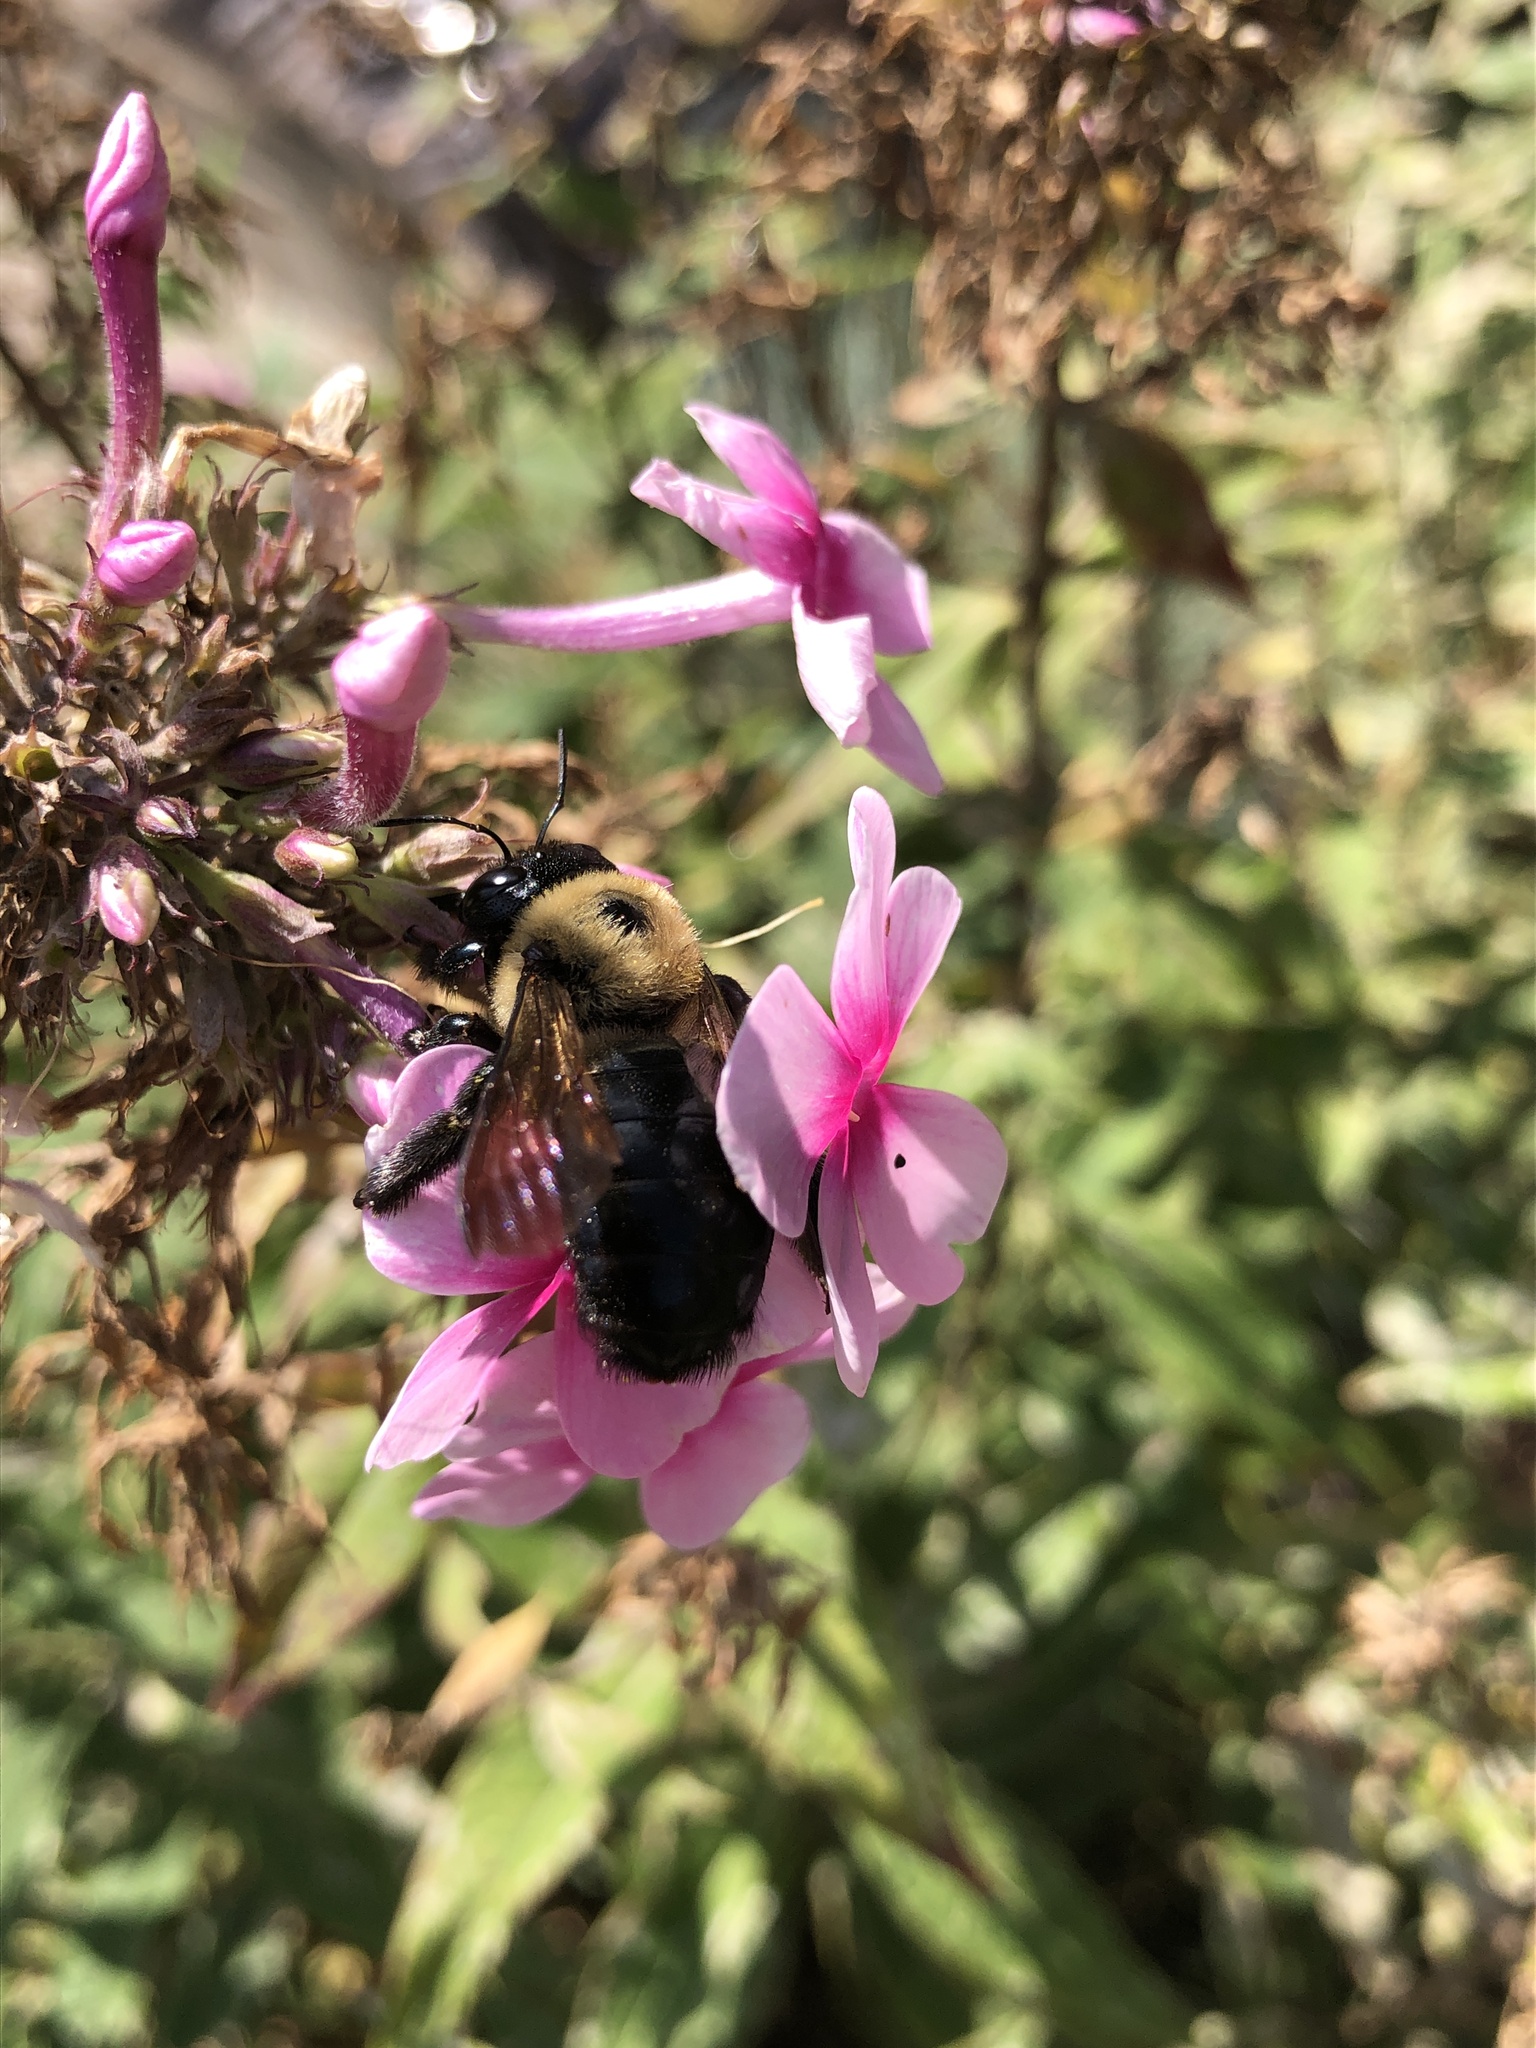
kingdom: Animalia
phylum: Arthropoda
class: Insecta
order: Hymenoptera
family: Apidae
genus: Xylocopa
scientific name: Xylocopa virginica
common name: Carpenter bee
